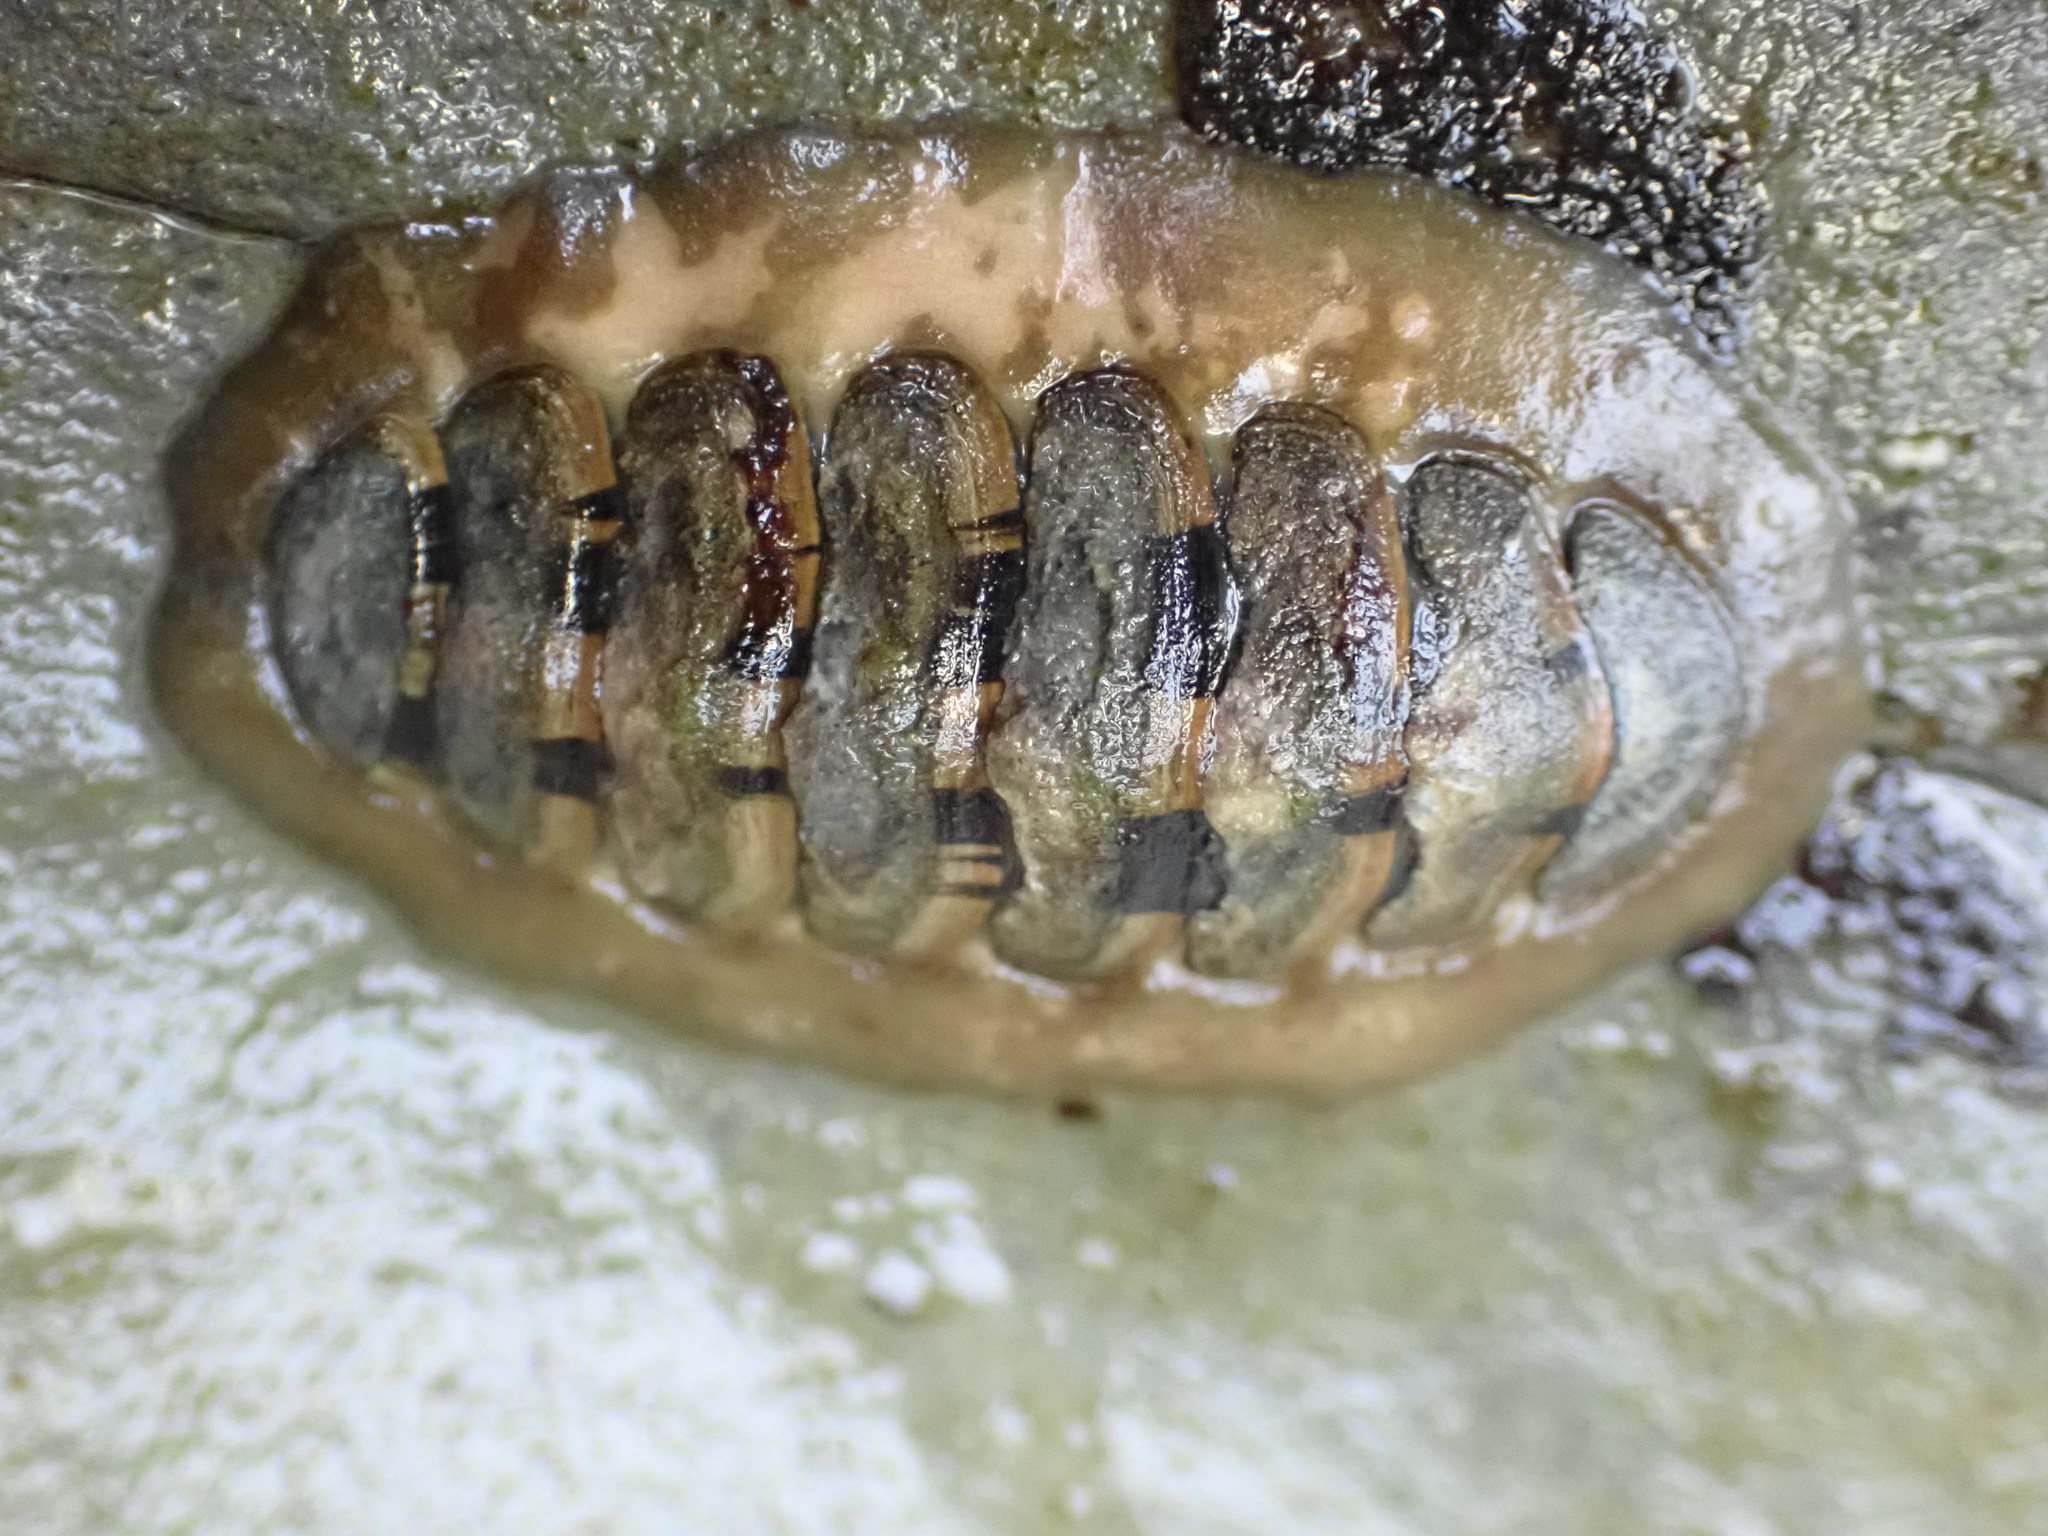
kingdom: Animalia
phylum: Mollusca
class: Polyplacophora
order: Chitonida
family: Tonicellidae
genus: Cyanoplax
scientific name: Cyanoplax hartwegii
